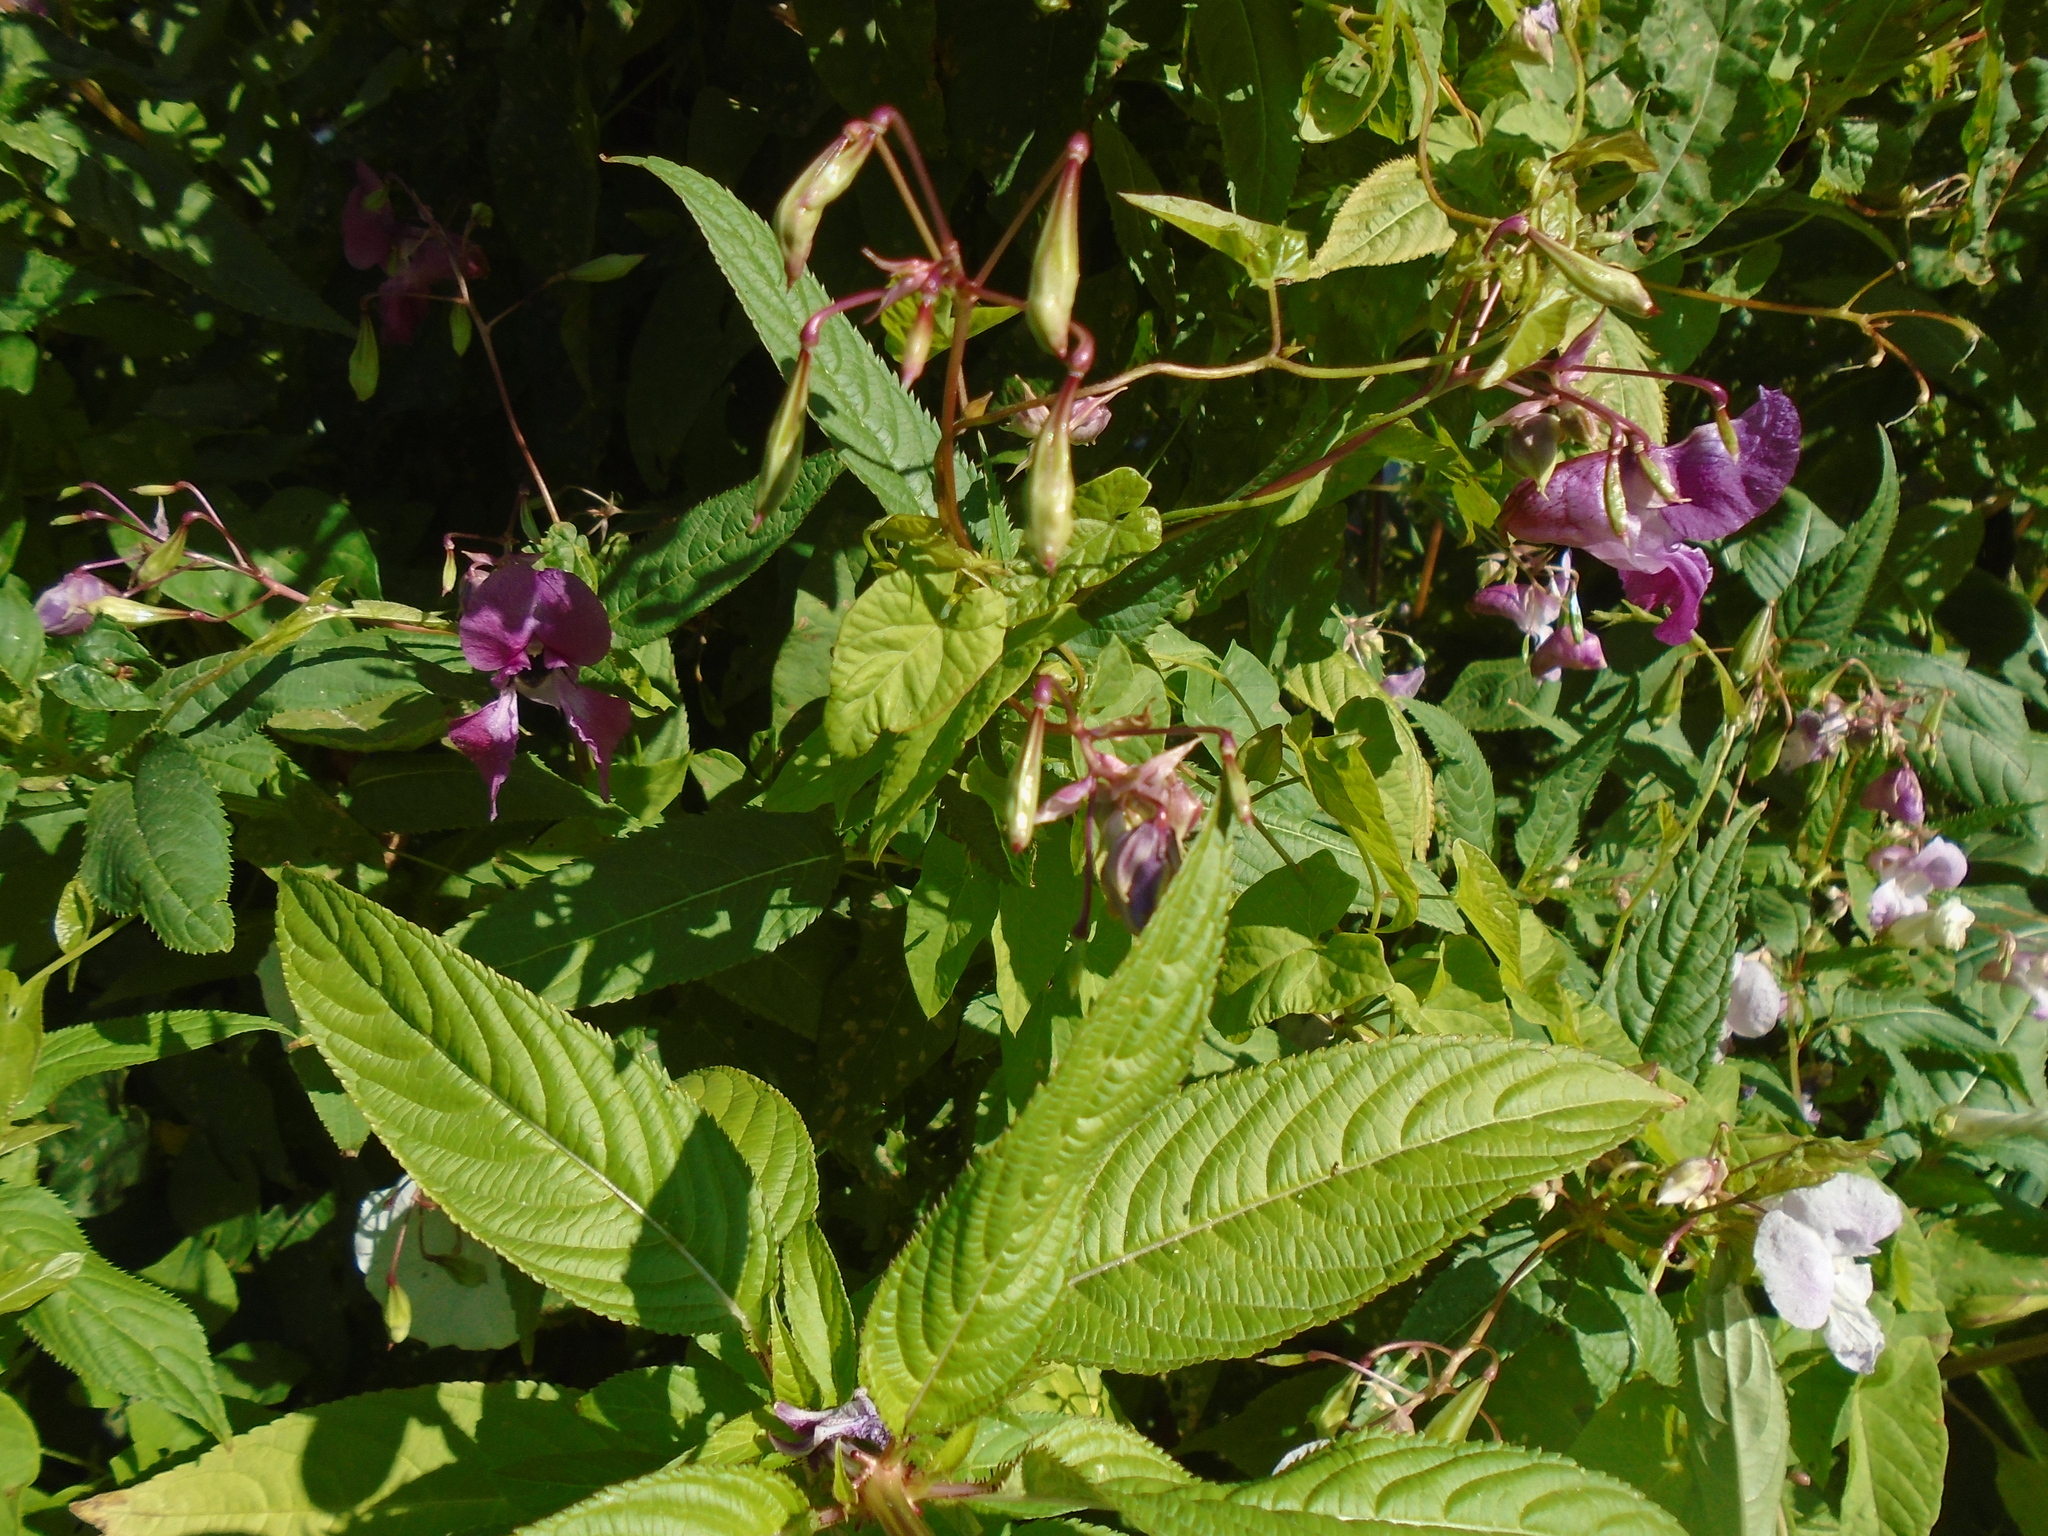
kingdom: Plantae
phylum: Tracheophyta
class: Magnoliopsida
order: Ericales
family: Balsaminaceae
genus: Impatiens
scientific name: Impatiens glandulifera
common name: Himalayan balsam
